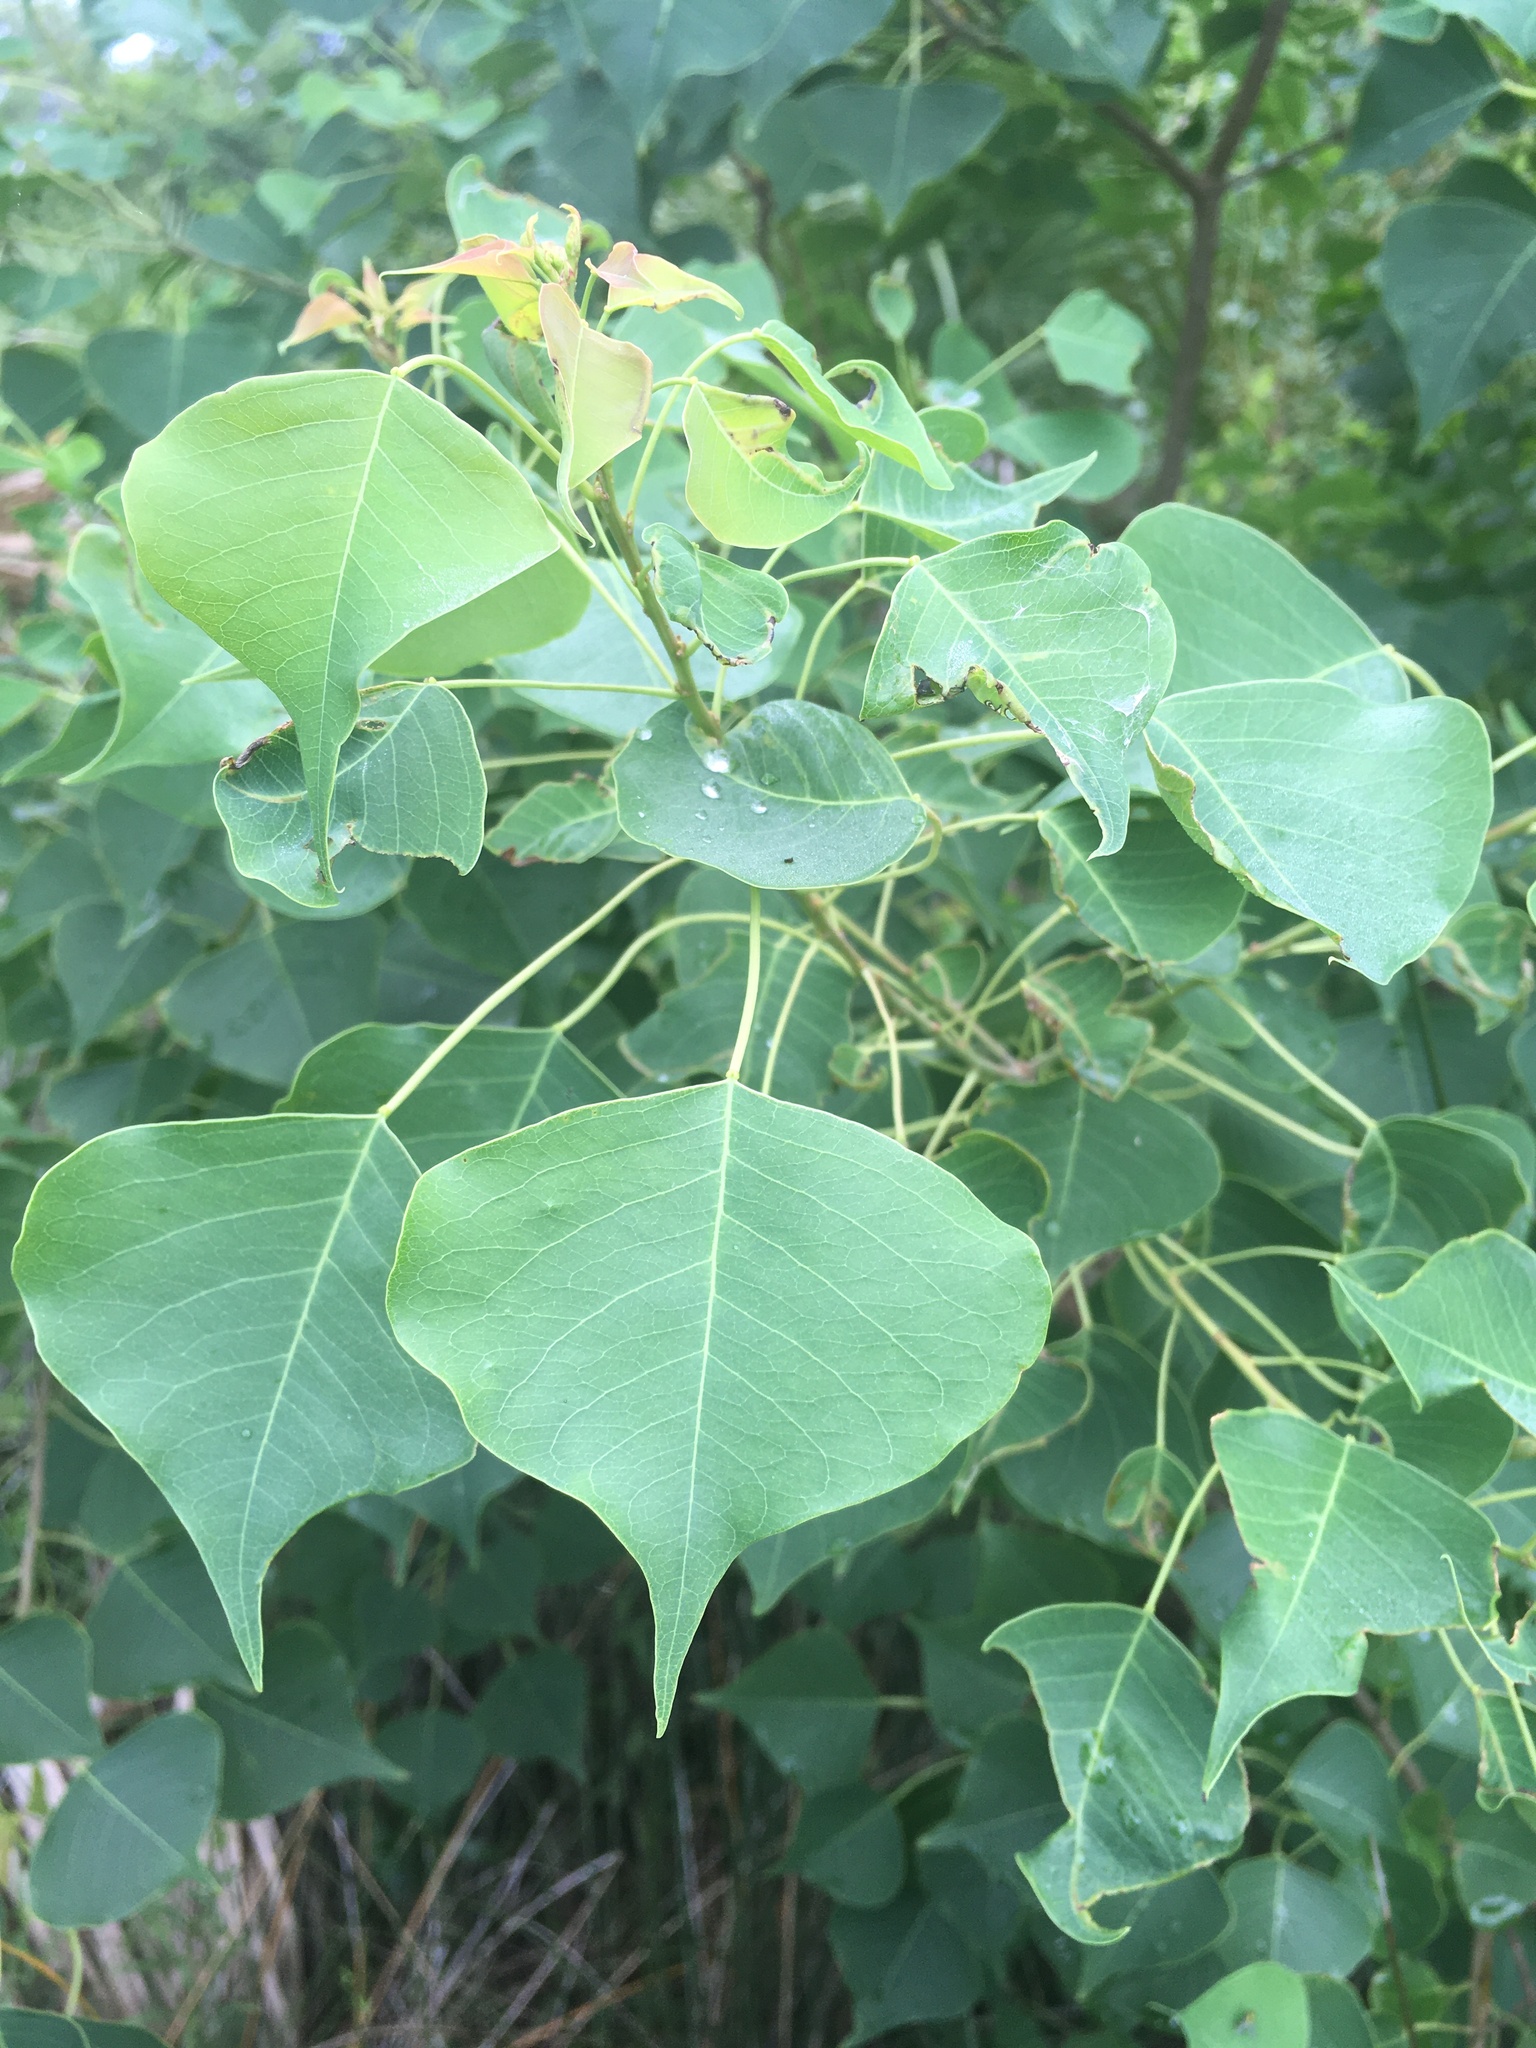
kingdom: Plantae
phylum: Tracheophyta
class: Magnoliopsida
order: Malpighiales
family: Euphorbiaceae
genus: Triadica
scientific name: Triadica sebifera
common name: Chinese tallow
